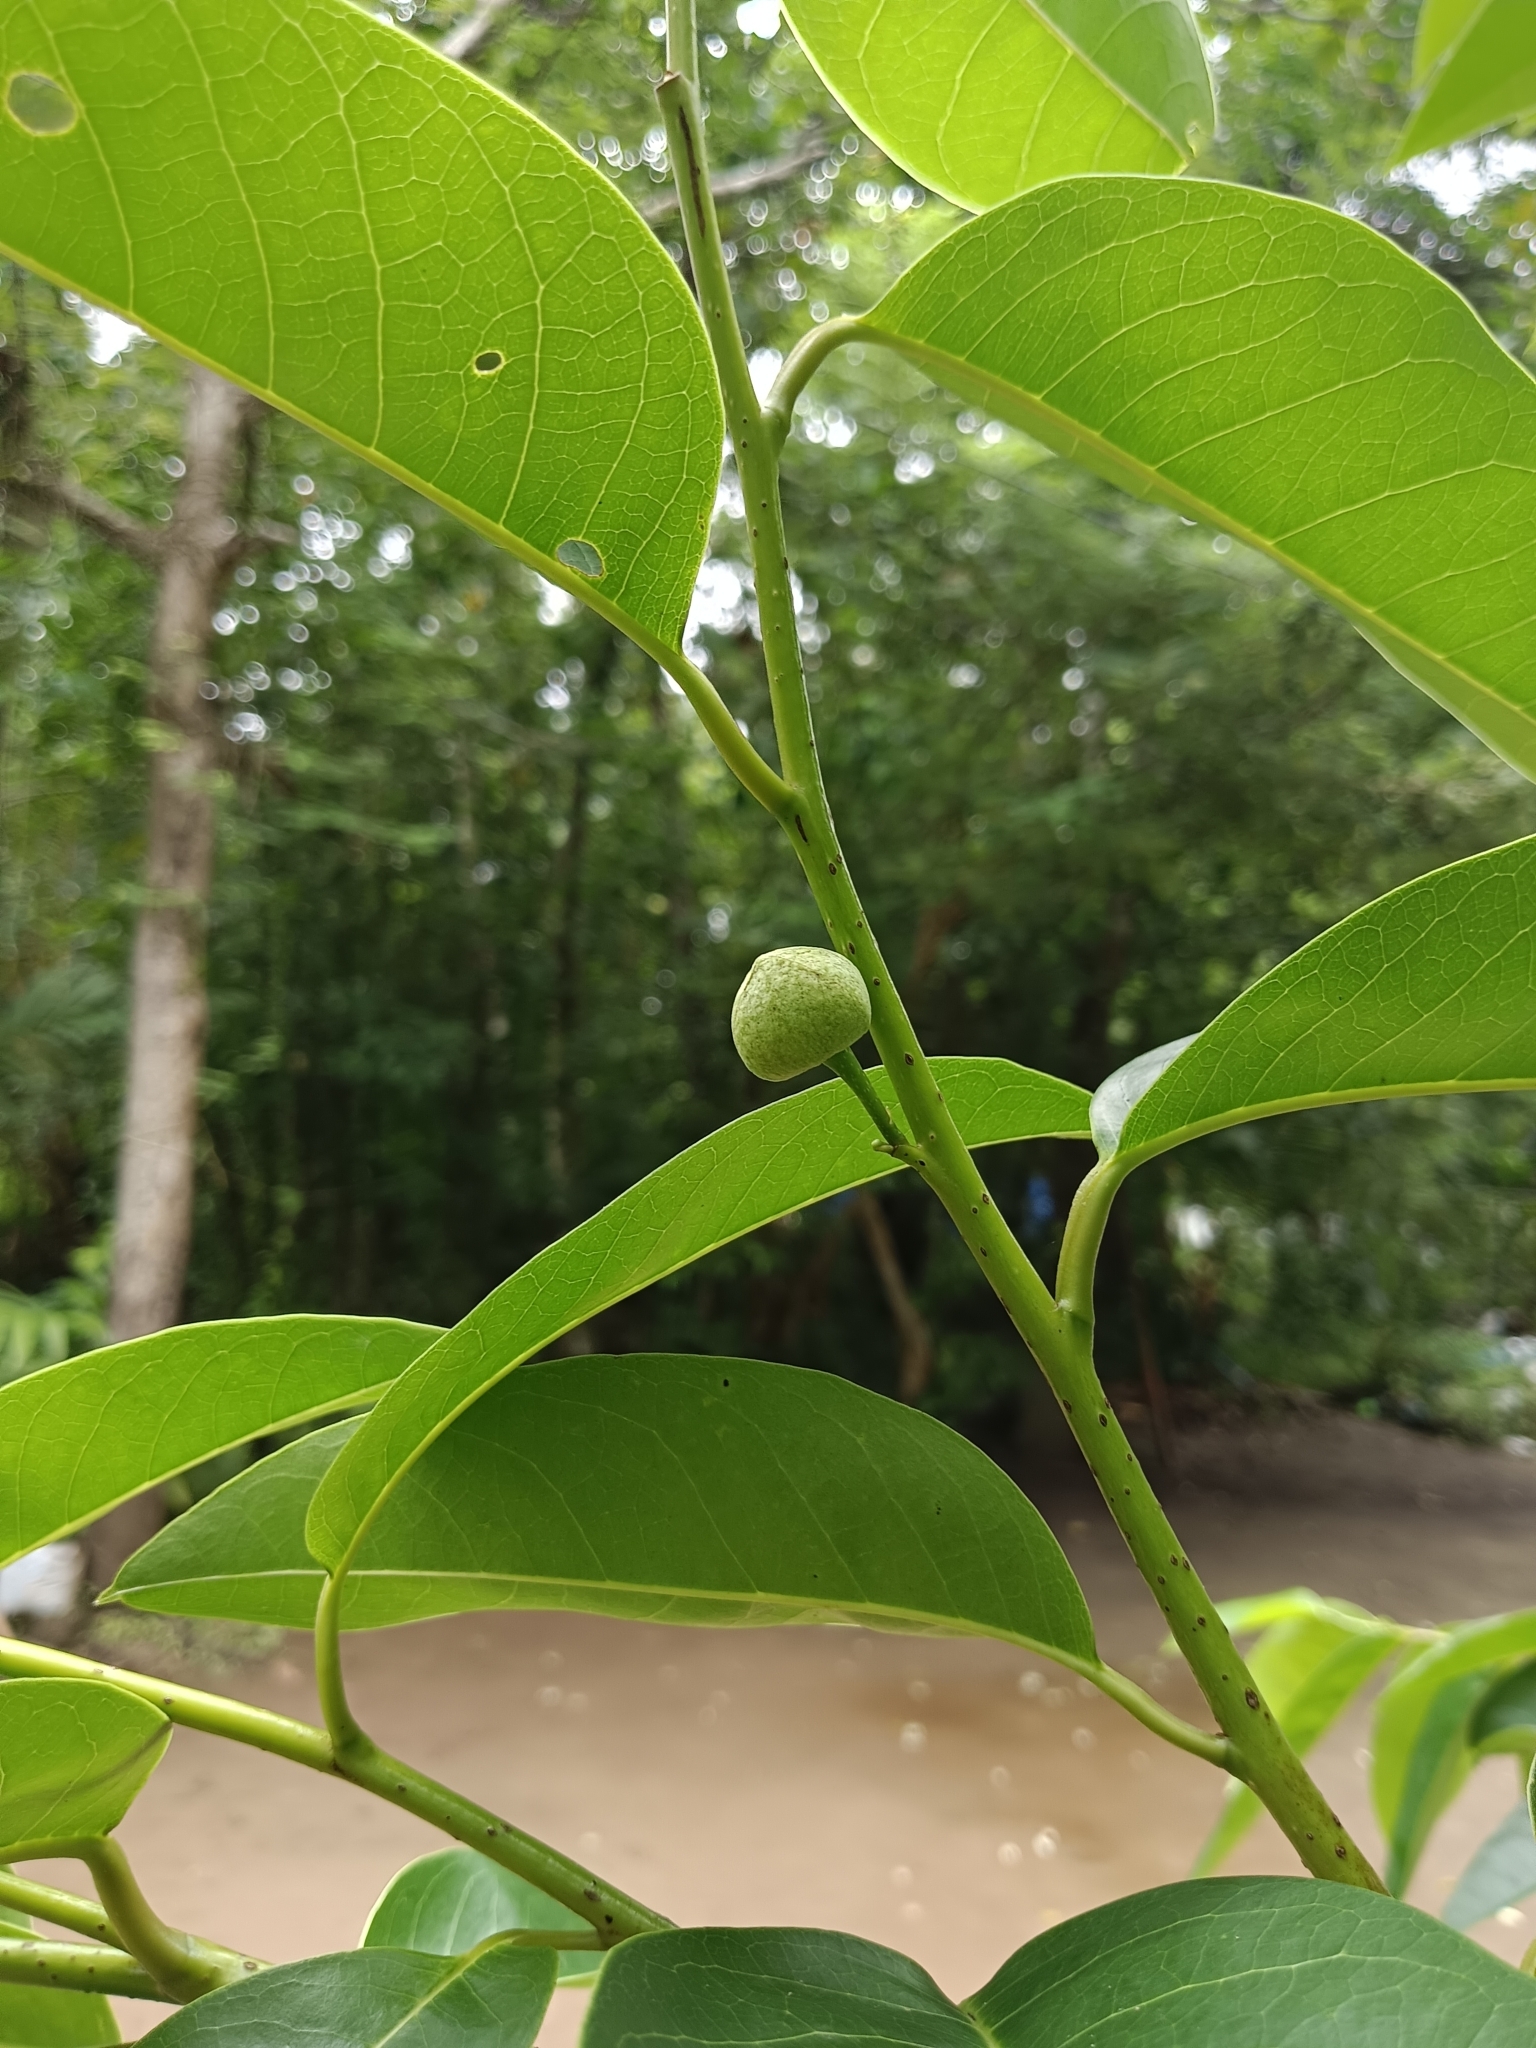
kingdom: Plantae
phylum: Tracheophyta
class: Magnoliopsida
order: Magnoliales
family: Annonaceae
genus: Annona
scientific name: Annona glabra
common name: Monkey apple
